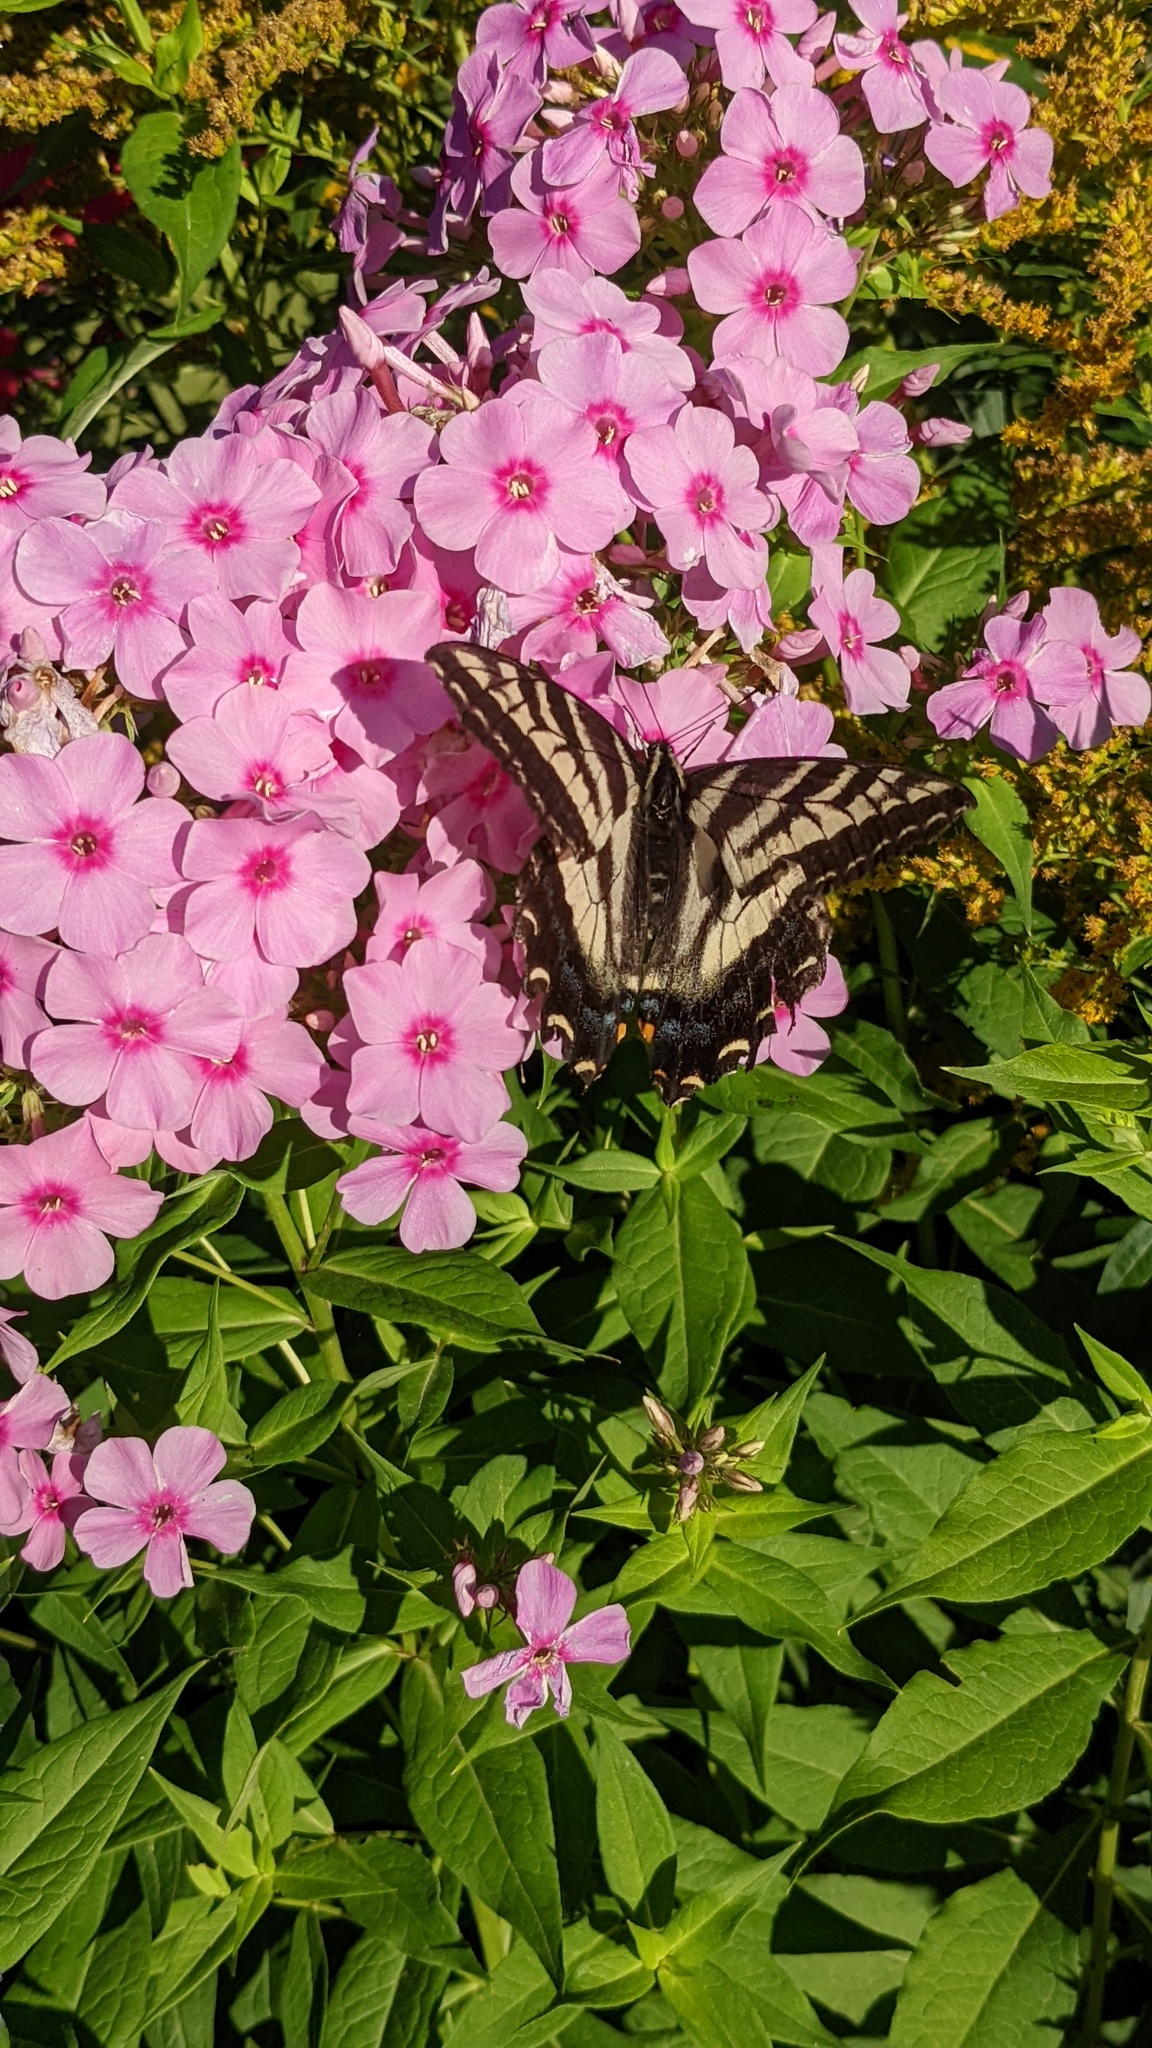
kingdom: Animalia
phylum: Arthropoda
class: Insecta
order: Lepidoptera
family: Papilionidae
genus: Papilio
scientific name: Papilio eurymedon
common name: Pale tiger swallowtail
